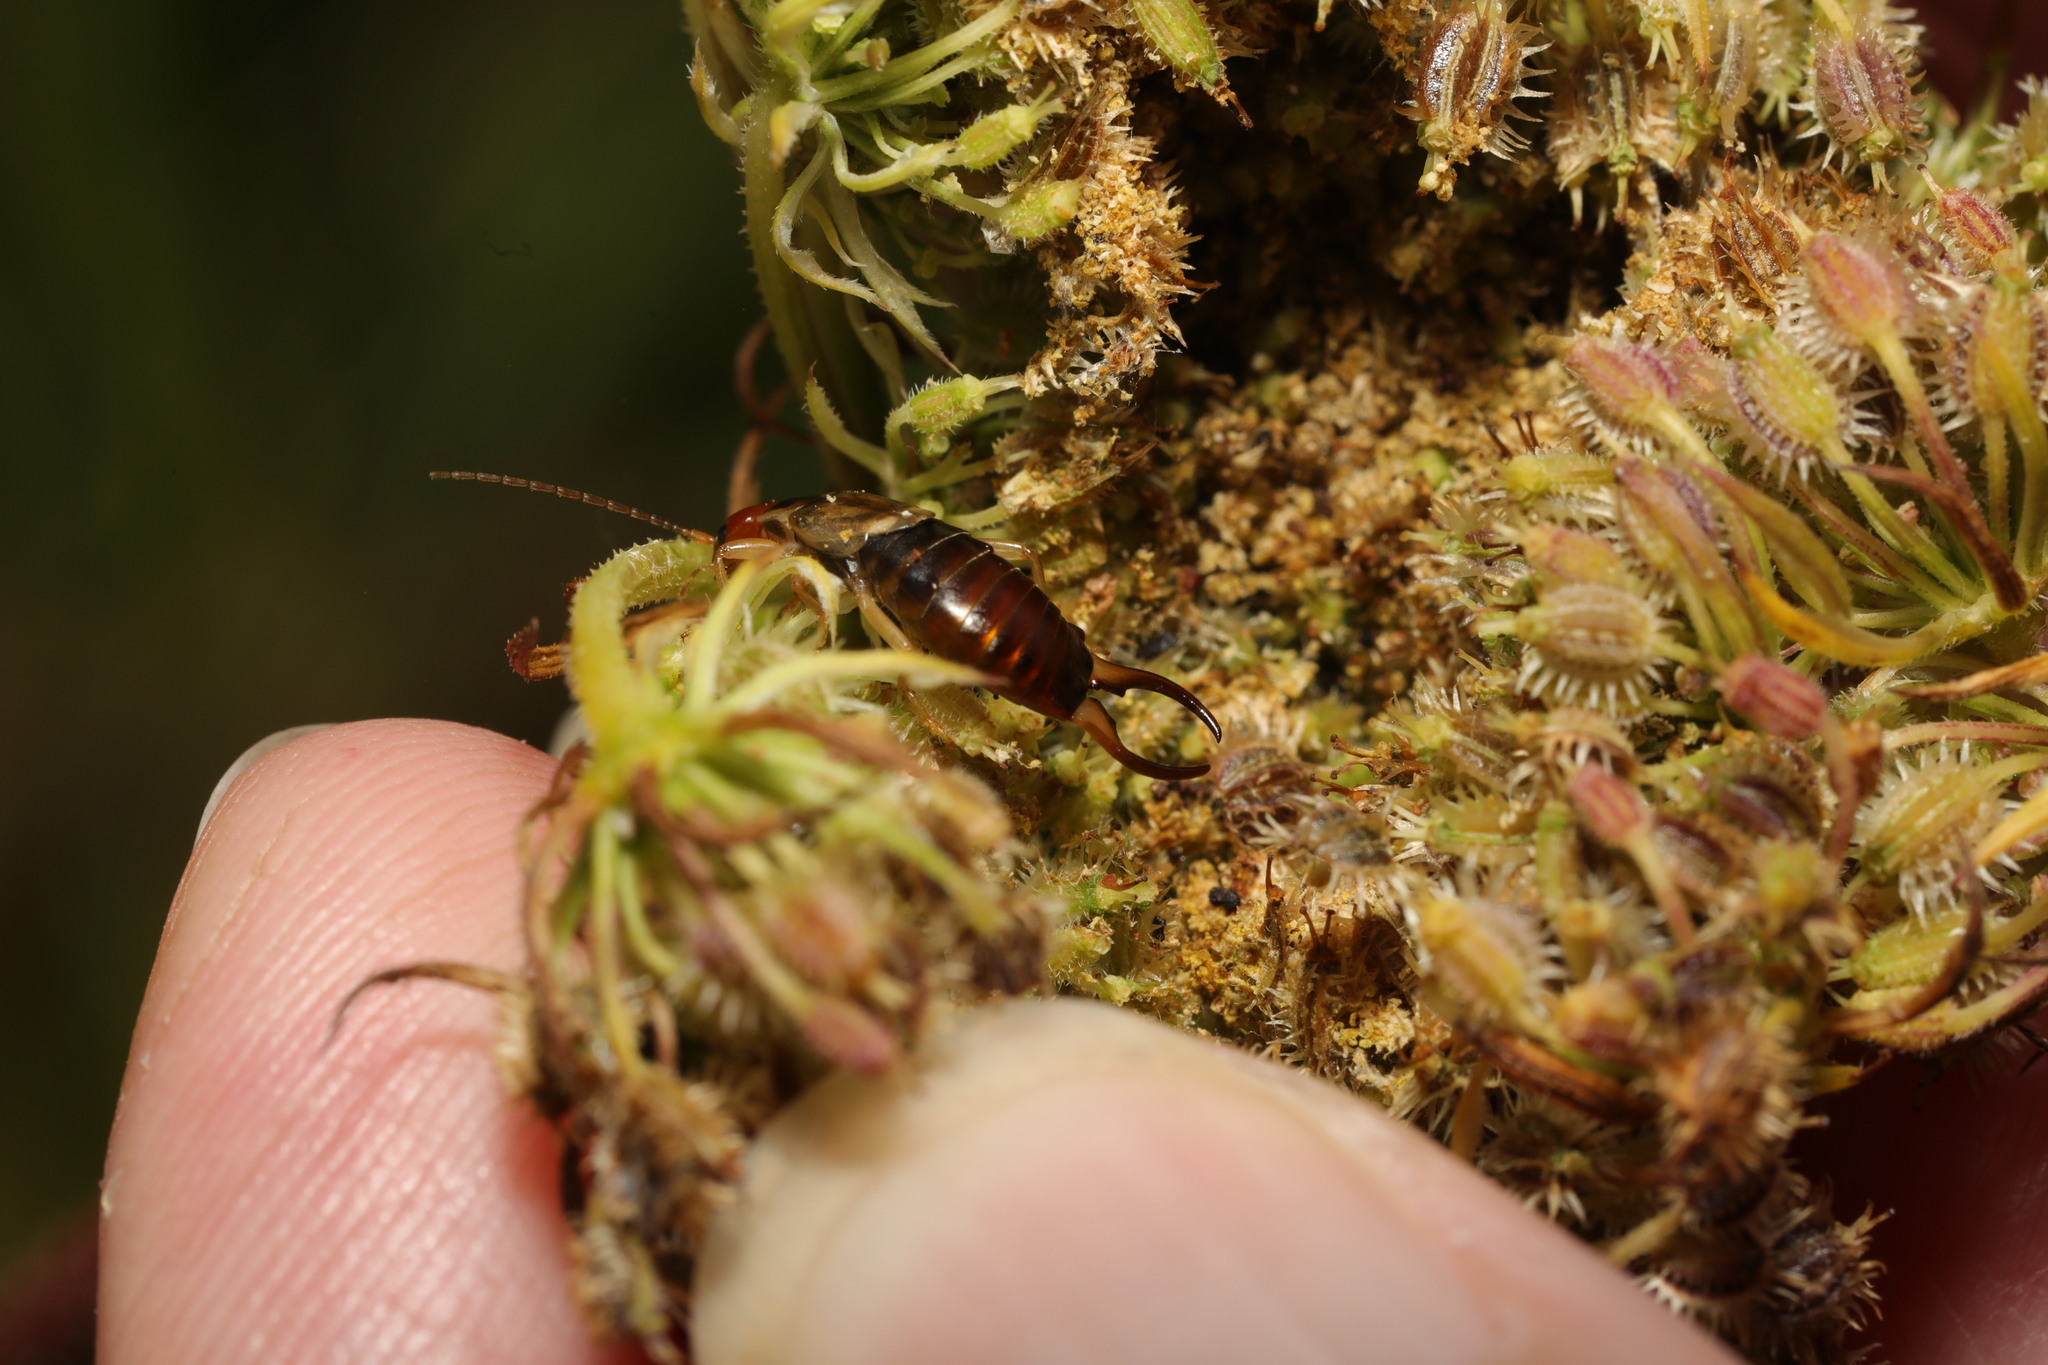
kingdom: Animalia
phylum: Arthropoda
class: Insecta
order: Dermaptera
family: Forficulidae
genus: Forficula
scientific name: Forficula
